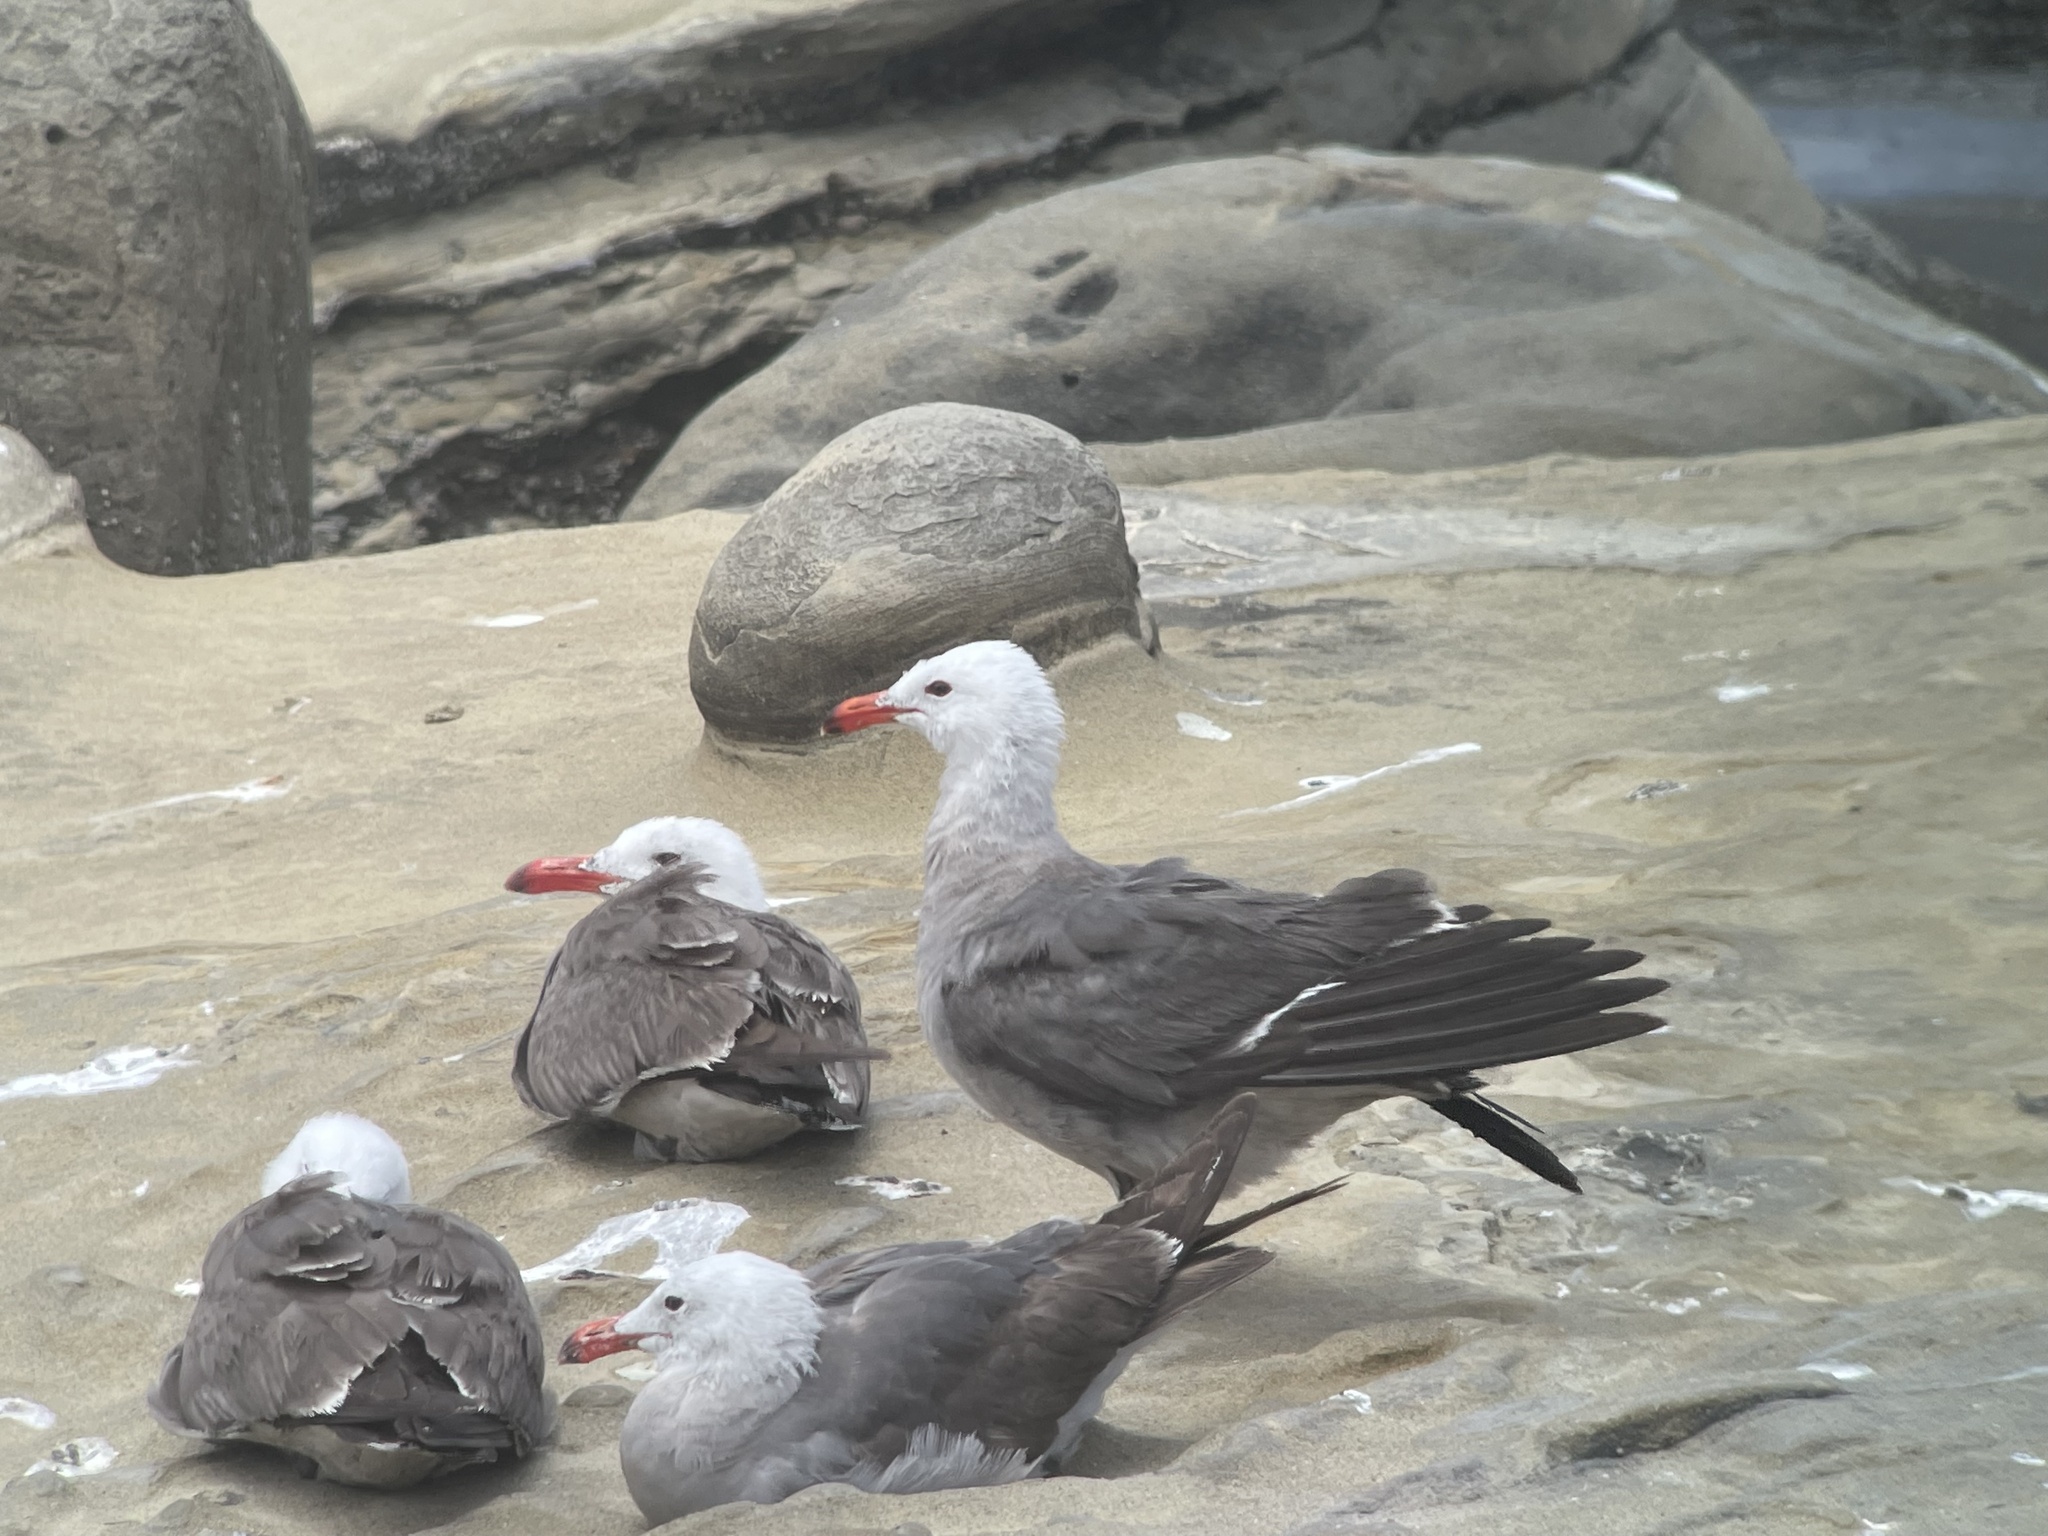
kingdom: Animalia
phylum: Chordata
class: Aves
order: Charadriiformes
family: Laridae
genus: Larus
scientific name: Larus heermanni
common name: Heermann's gull
